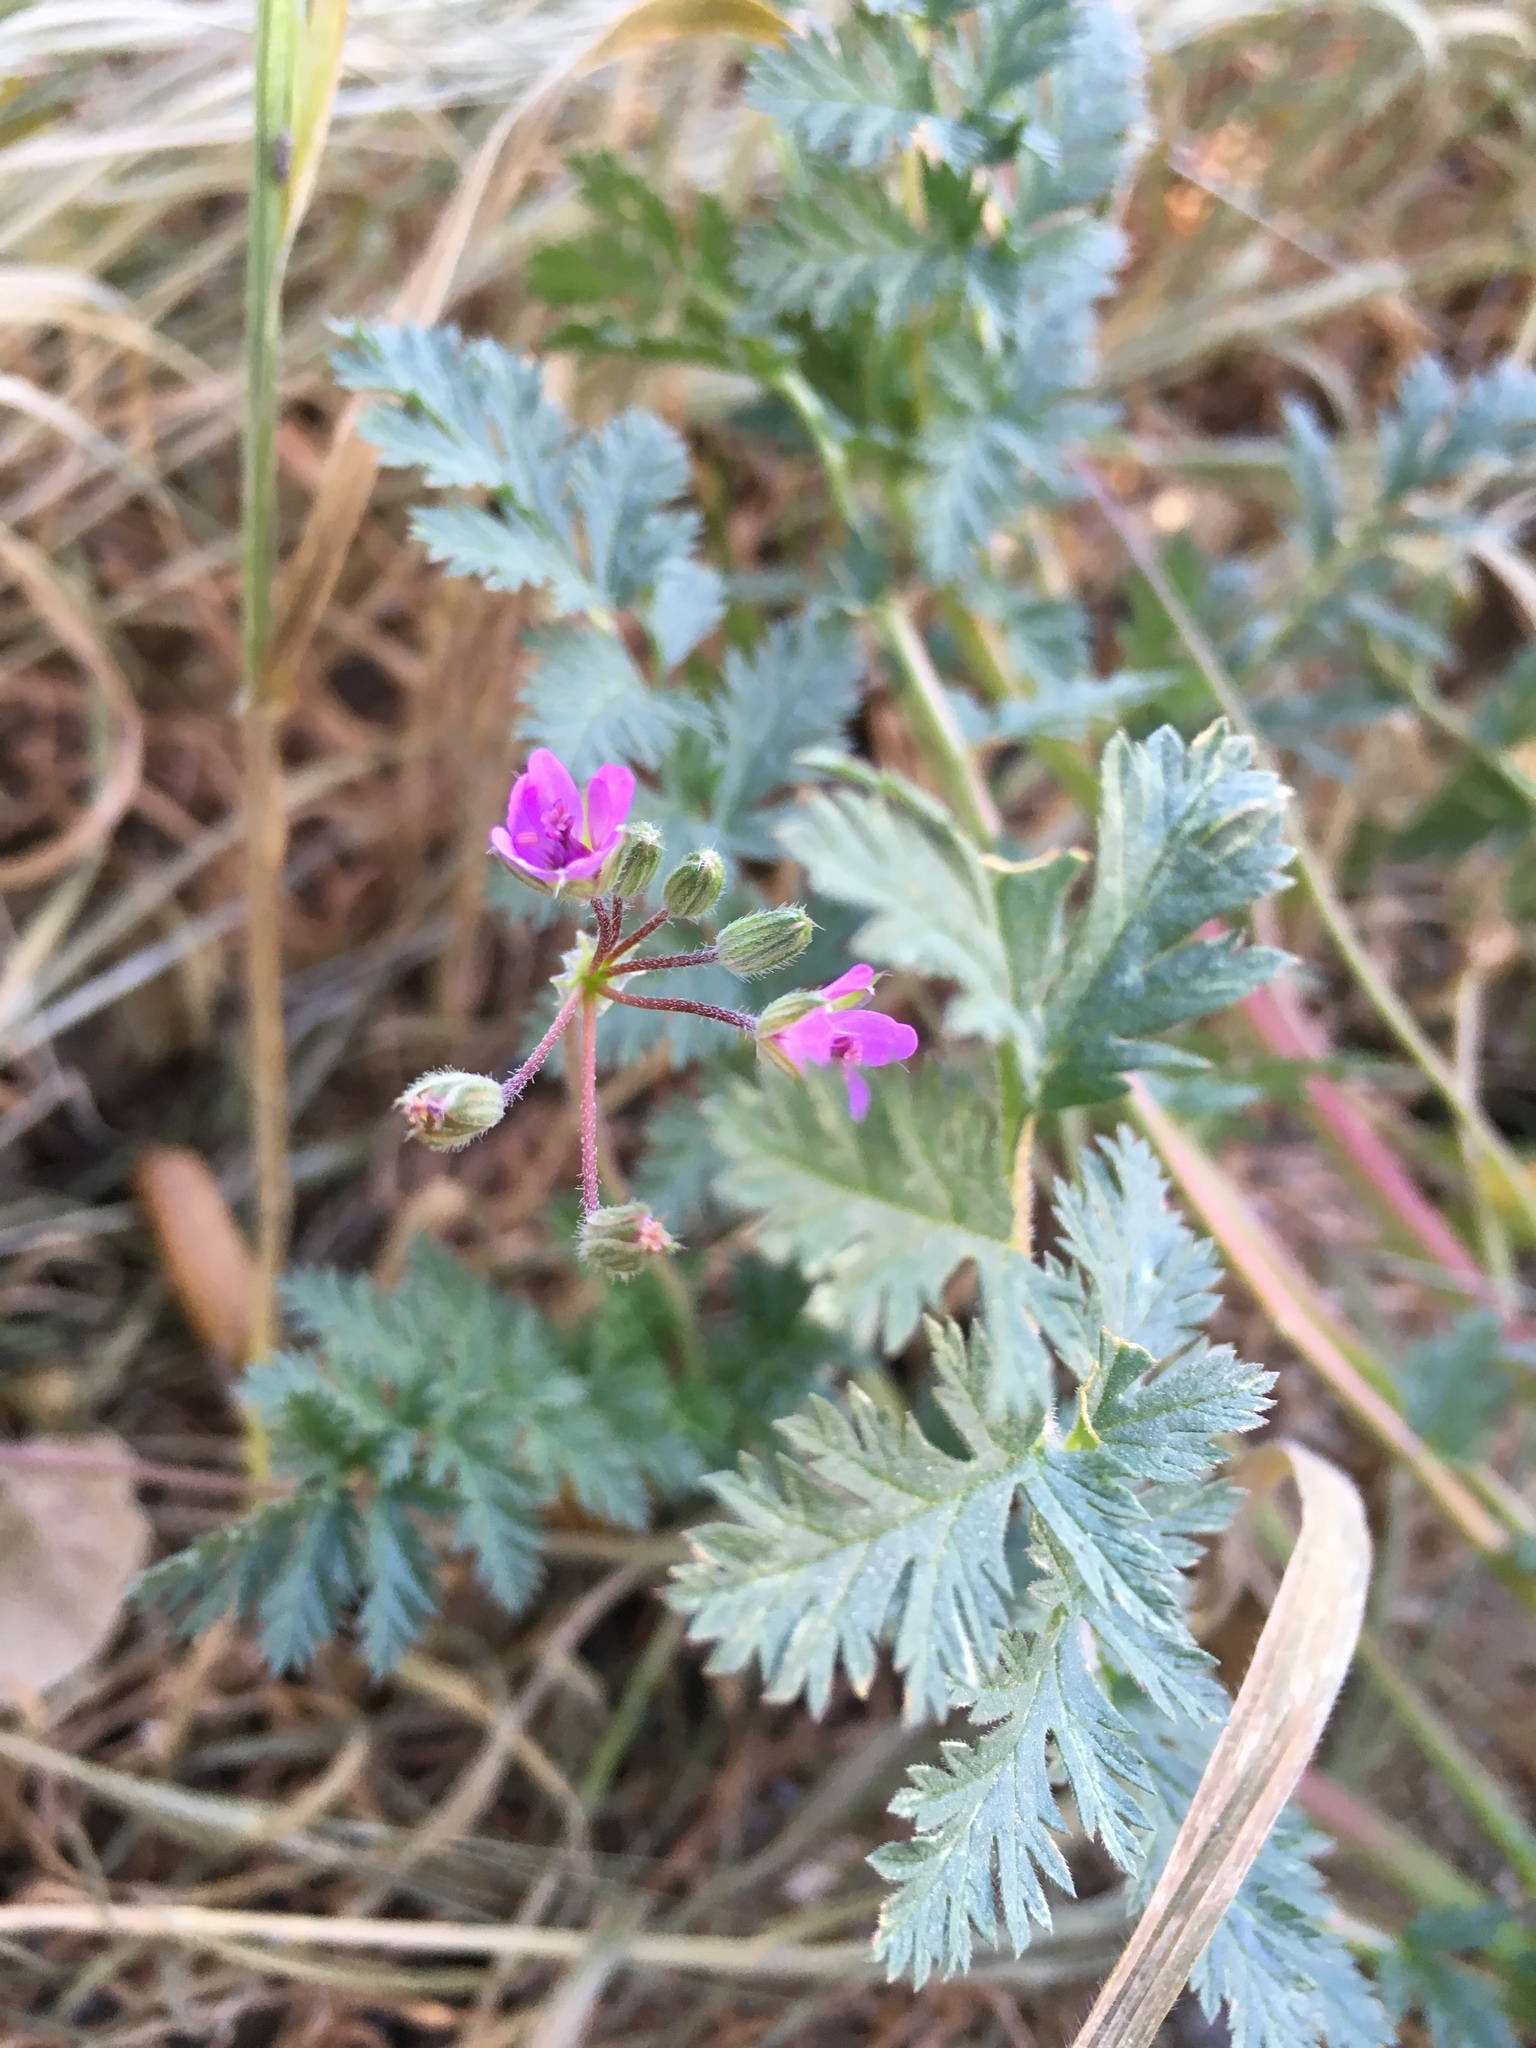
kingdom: Plantae
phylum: Tracheophyta
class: Magnoliopsida
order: Geraniales
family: Geraniaceae
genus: Erodium
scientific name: Erodium cicutarium
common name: Common stork's-bill
